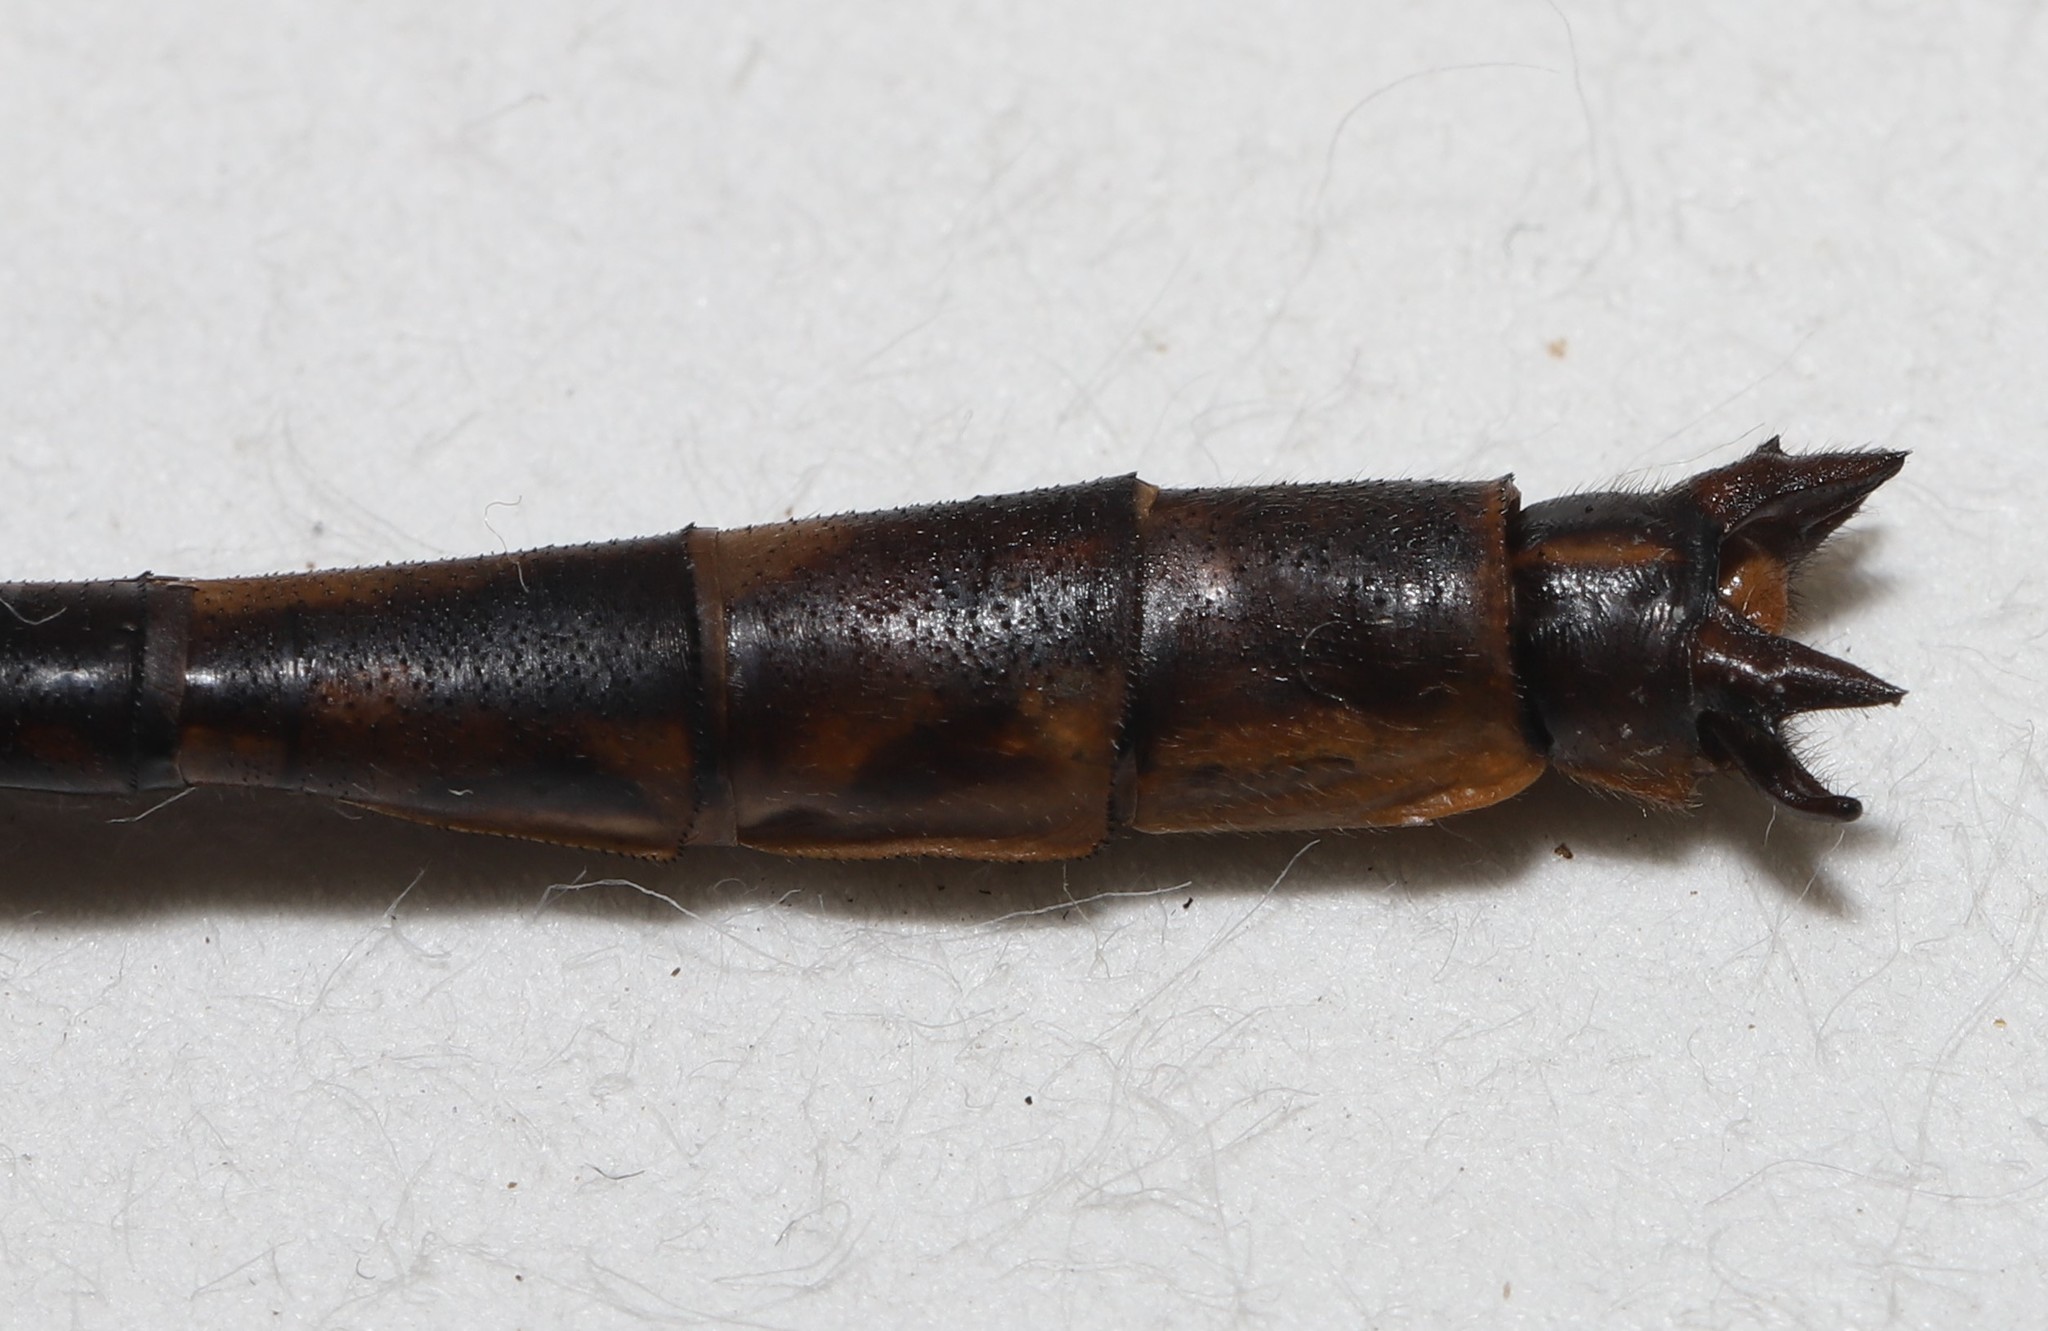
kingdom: Animalia
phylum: Arthropoda
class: Insecta
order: Odonata
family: Gomphidae
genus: Phanogomphus
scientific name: Phanogomphus spicatus
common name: Dusky clubtail
